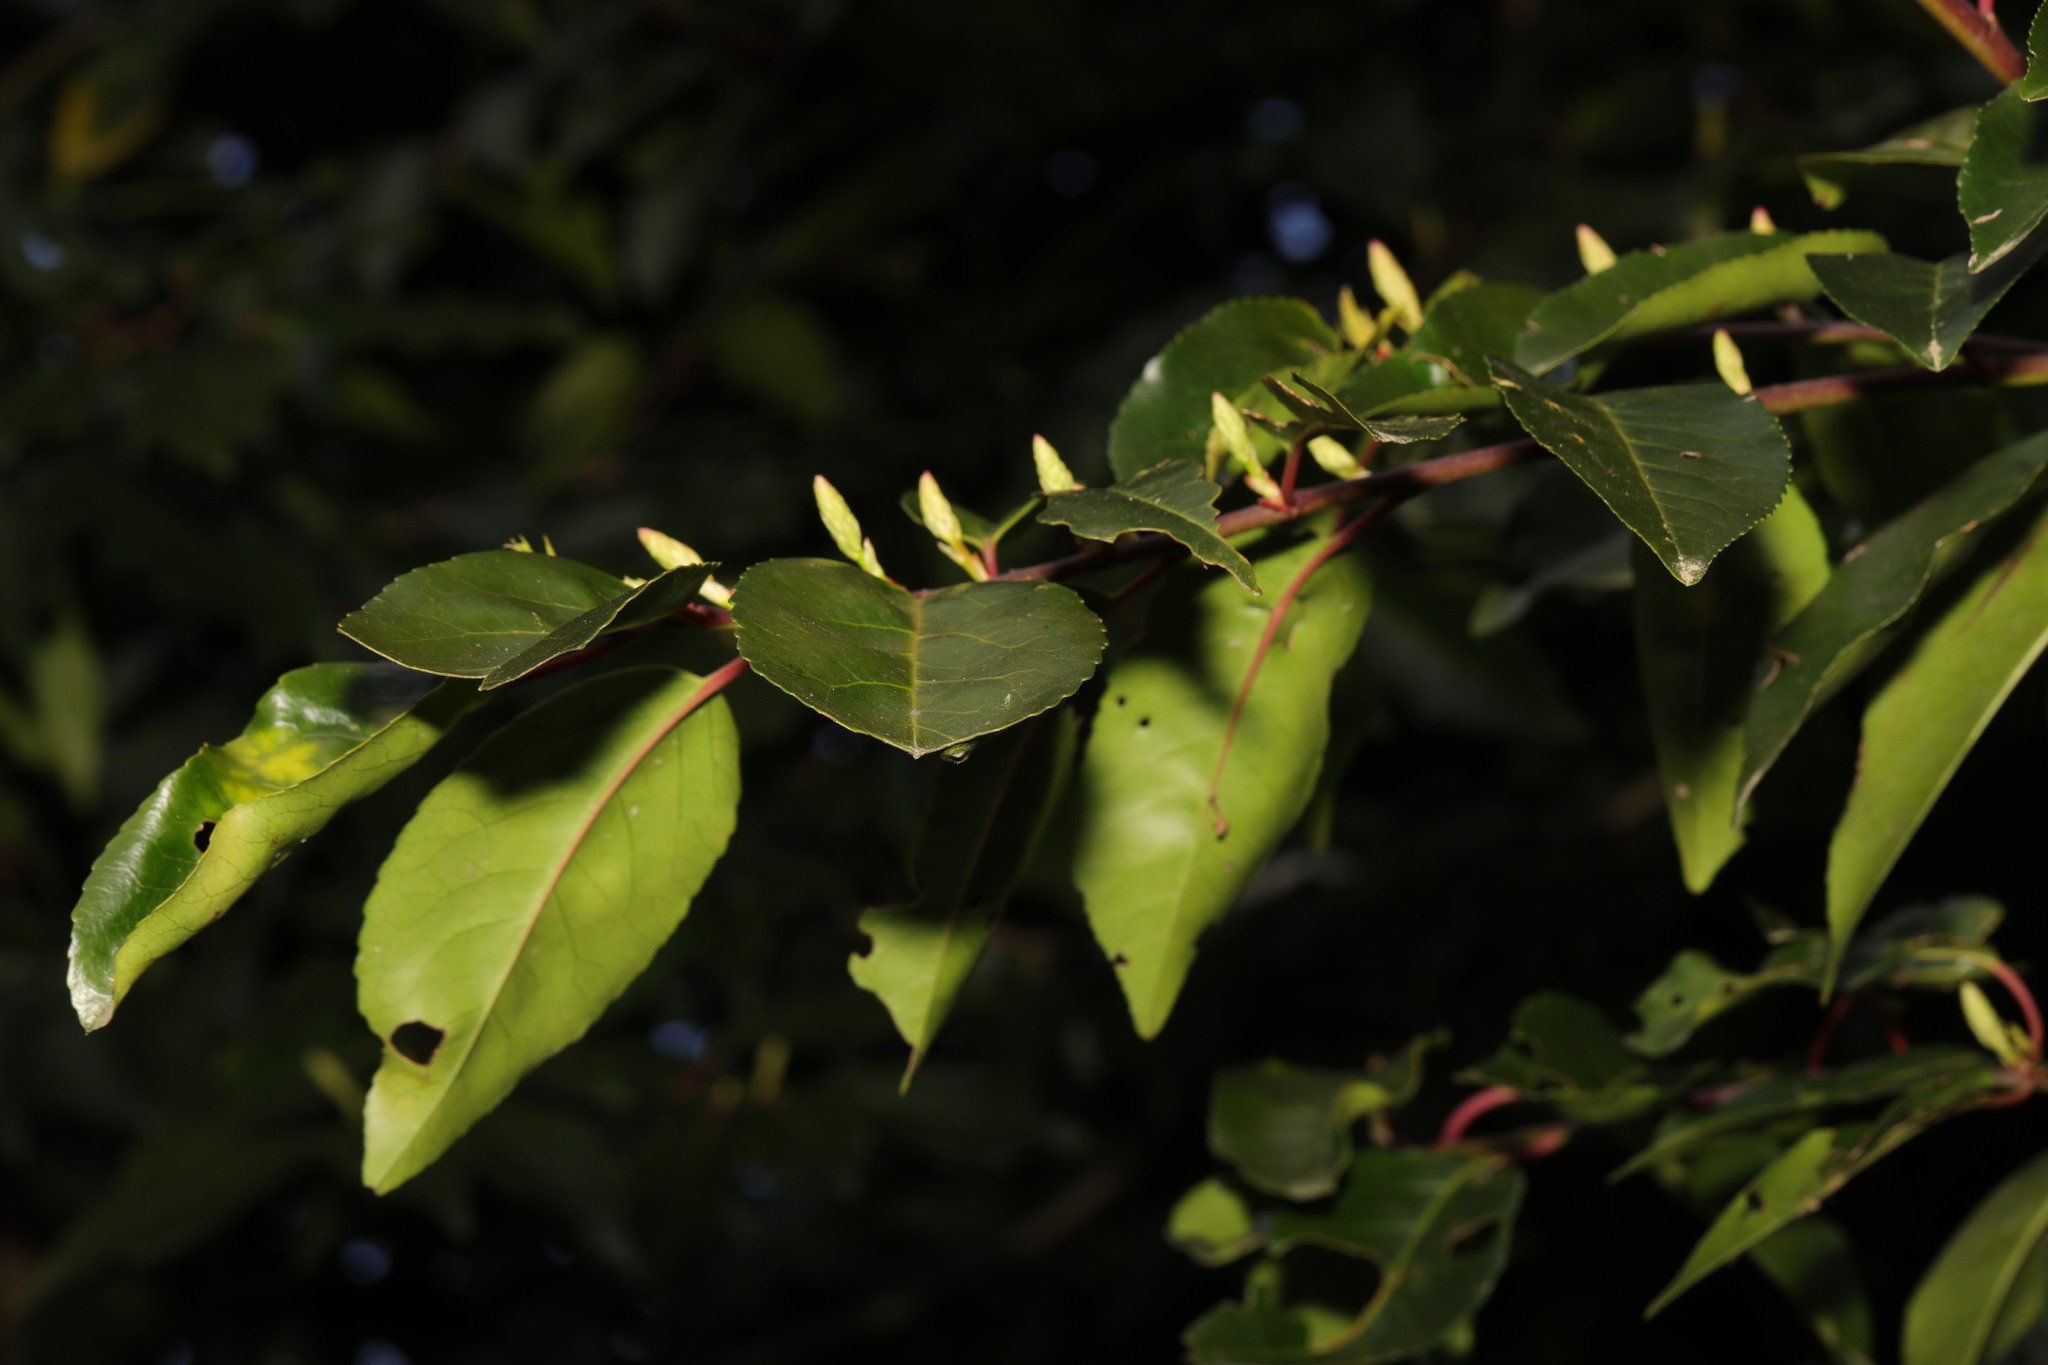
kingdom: Plantae
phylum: Tracheophyta
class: Magnoliopsida
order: Rosales
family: Rosaceae
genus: Prunus
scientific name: Prunus lusitanica
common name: Portugal laurel
